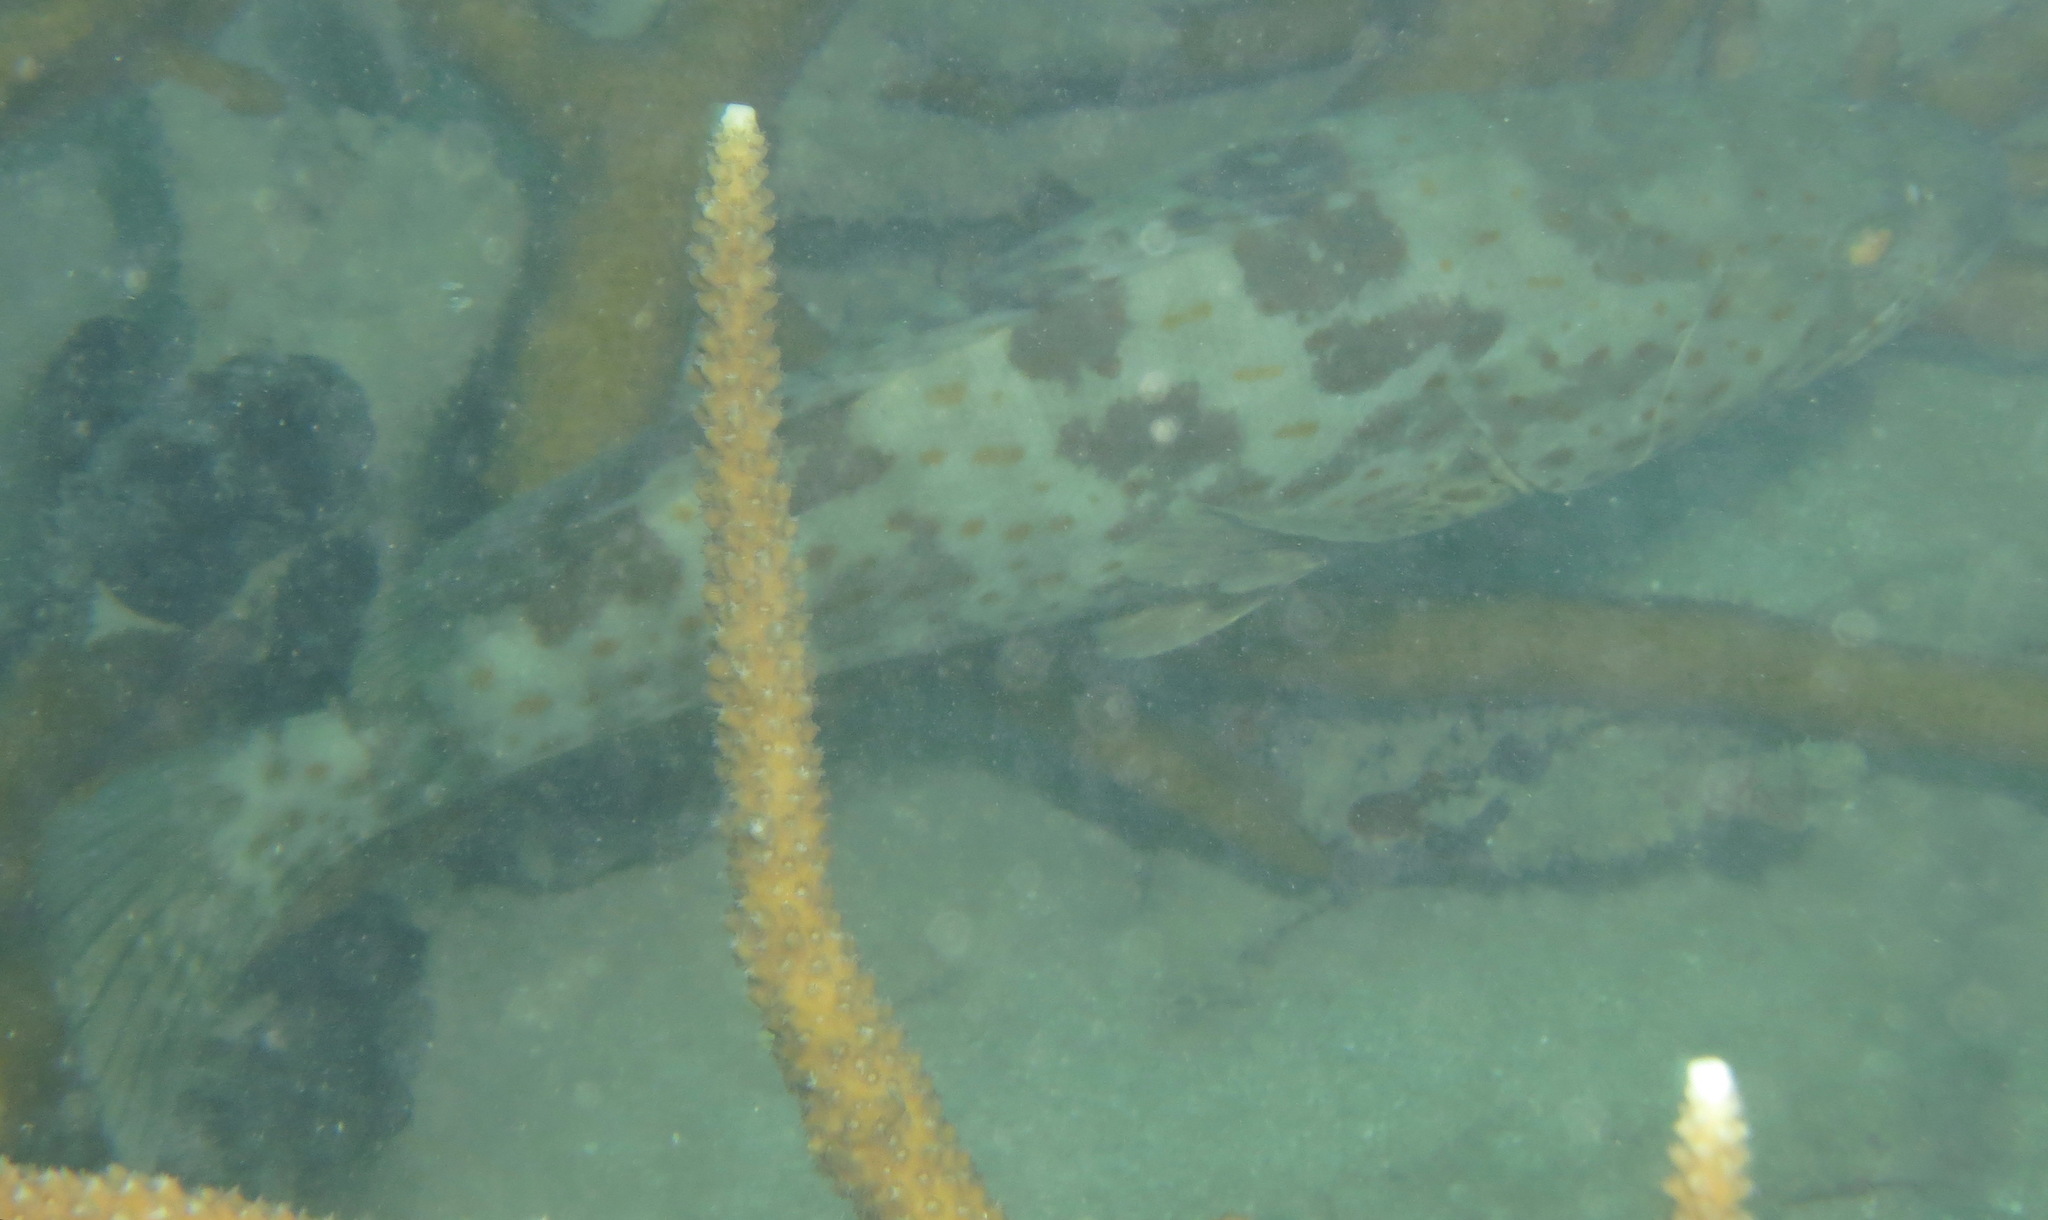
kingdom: Animalia
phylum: Chordata
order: Perciformes
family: Serranidae
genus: Epinephelus
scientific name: Epinephelus coioides
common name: Orange-spotted grouper
